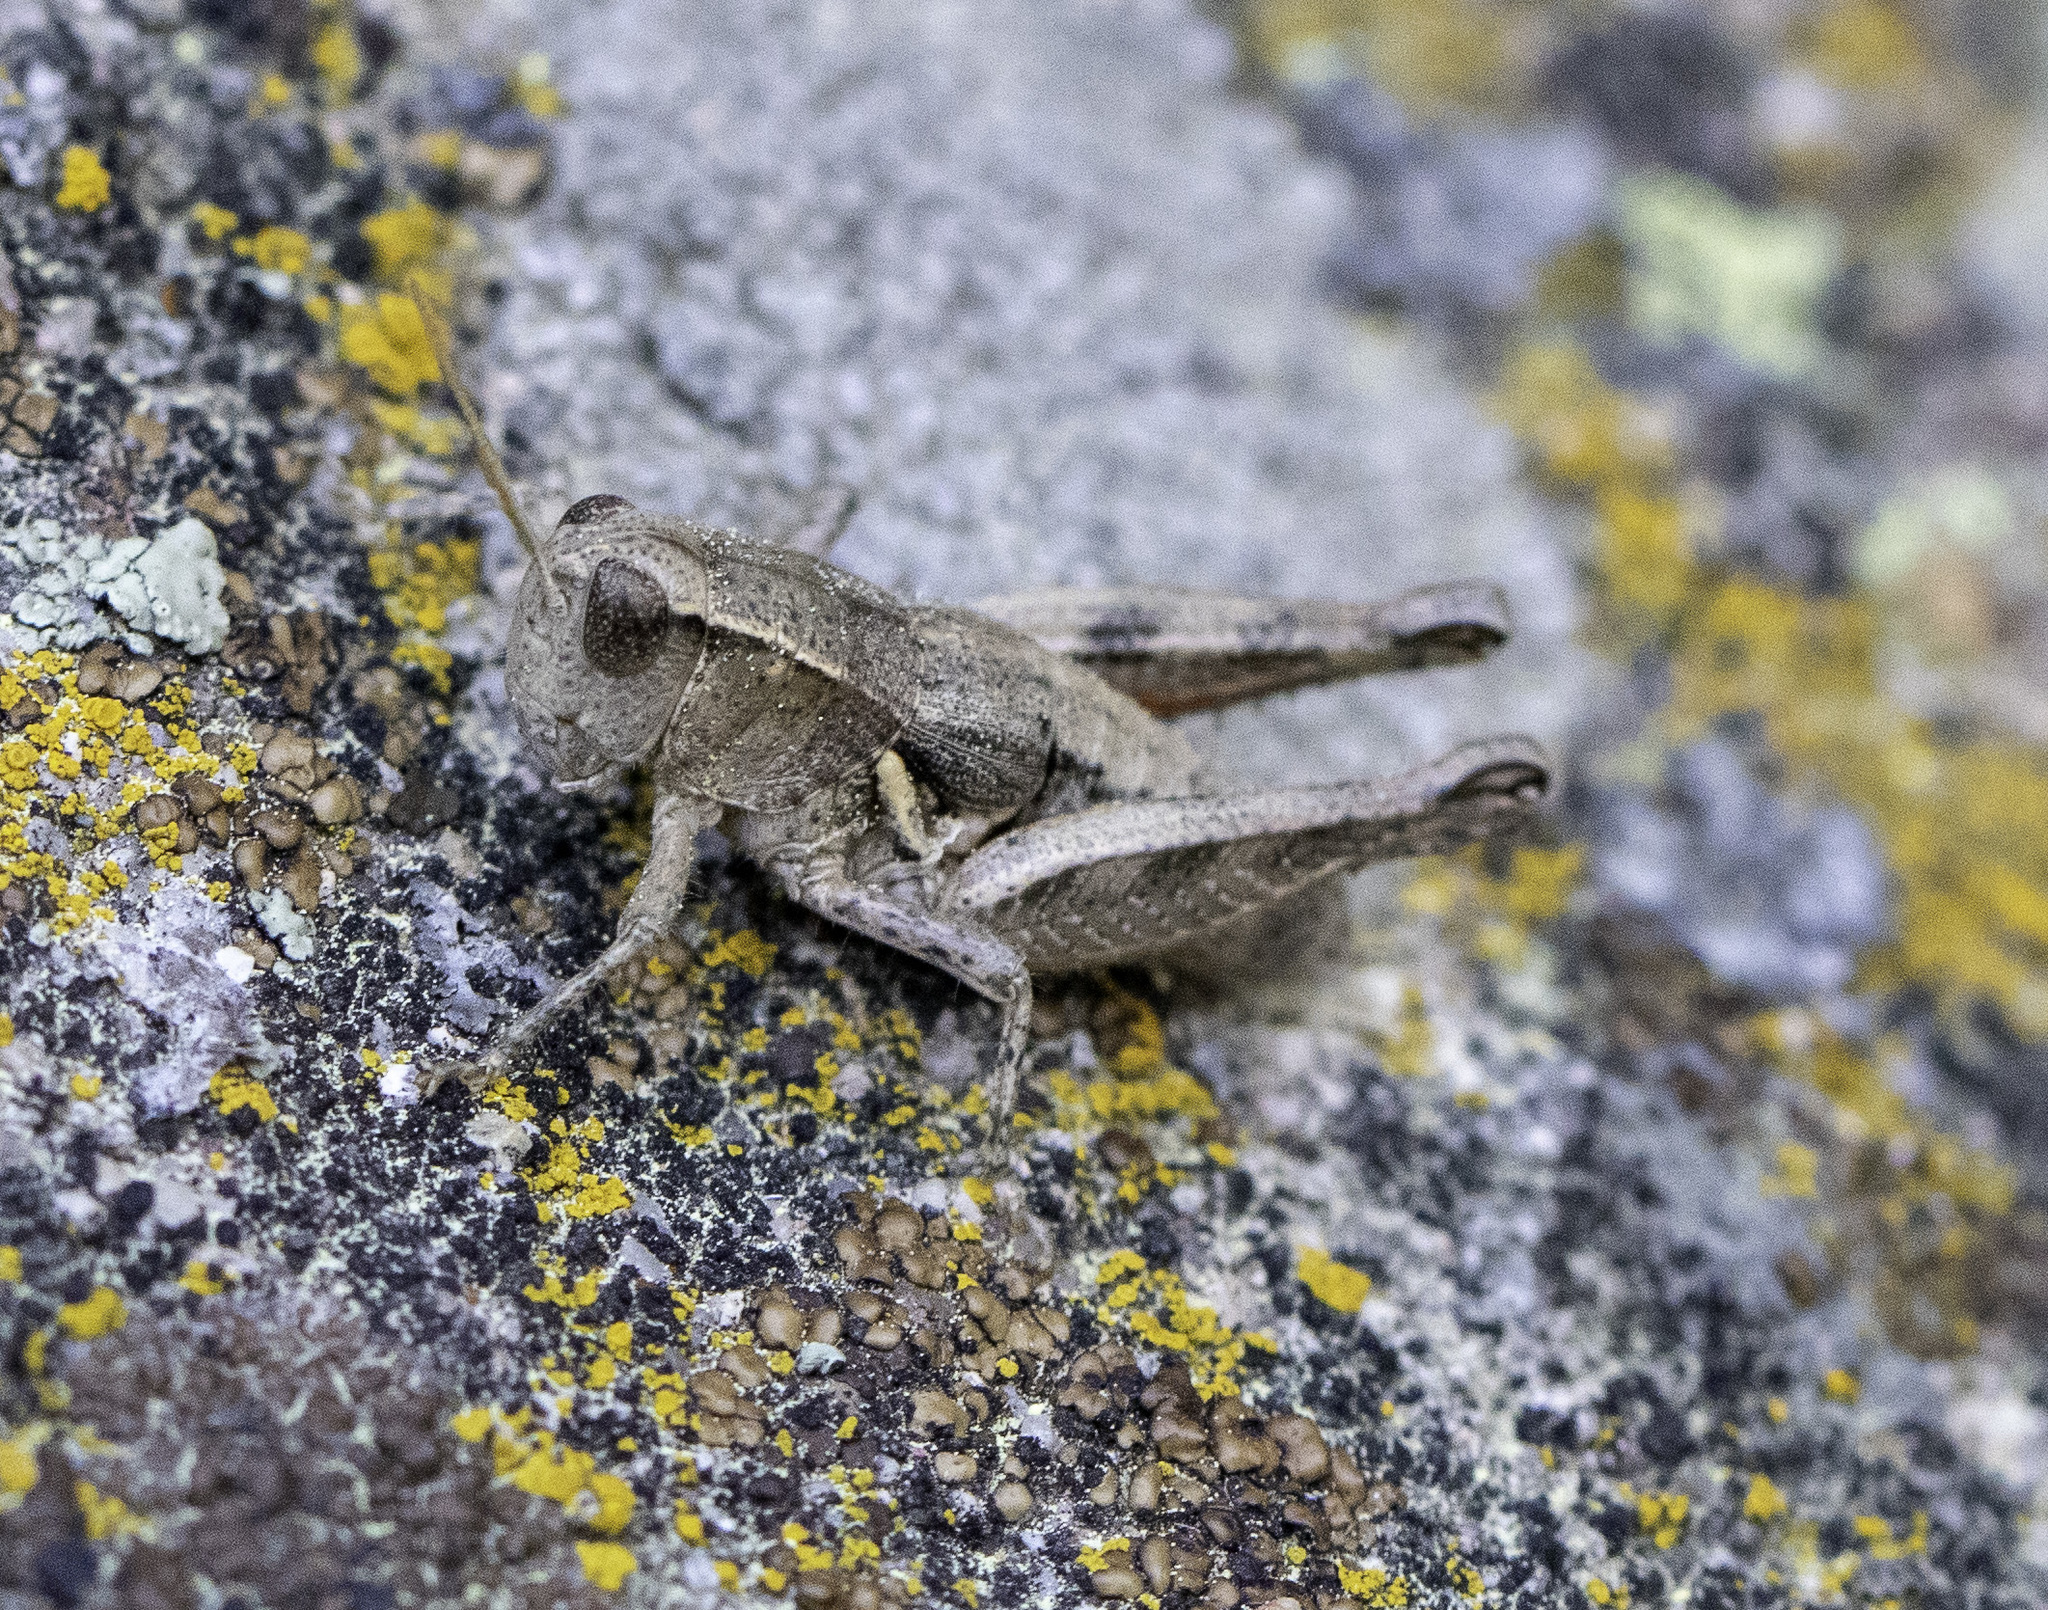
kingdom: Animalia
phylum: Arthropoda
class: Insecta
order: Orthoptera
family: Acrididae
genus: Oedaleonotus
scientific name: Oedaleonotus phryneicus
